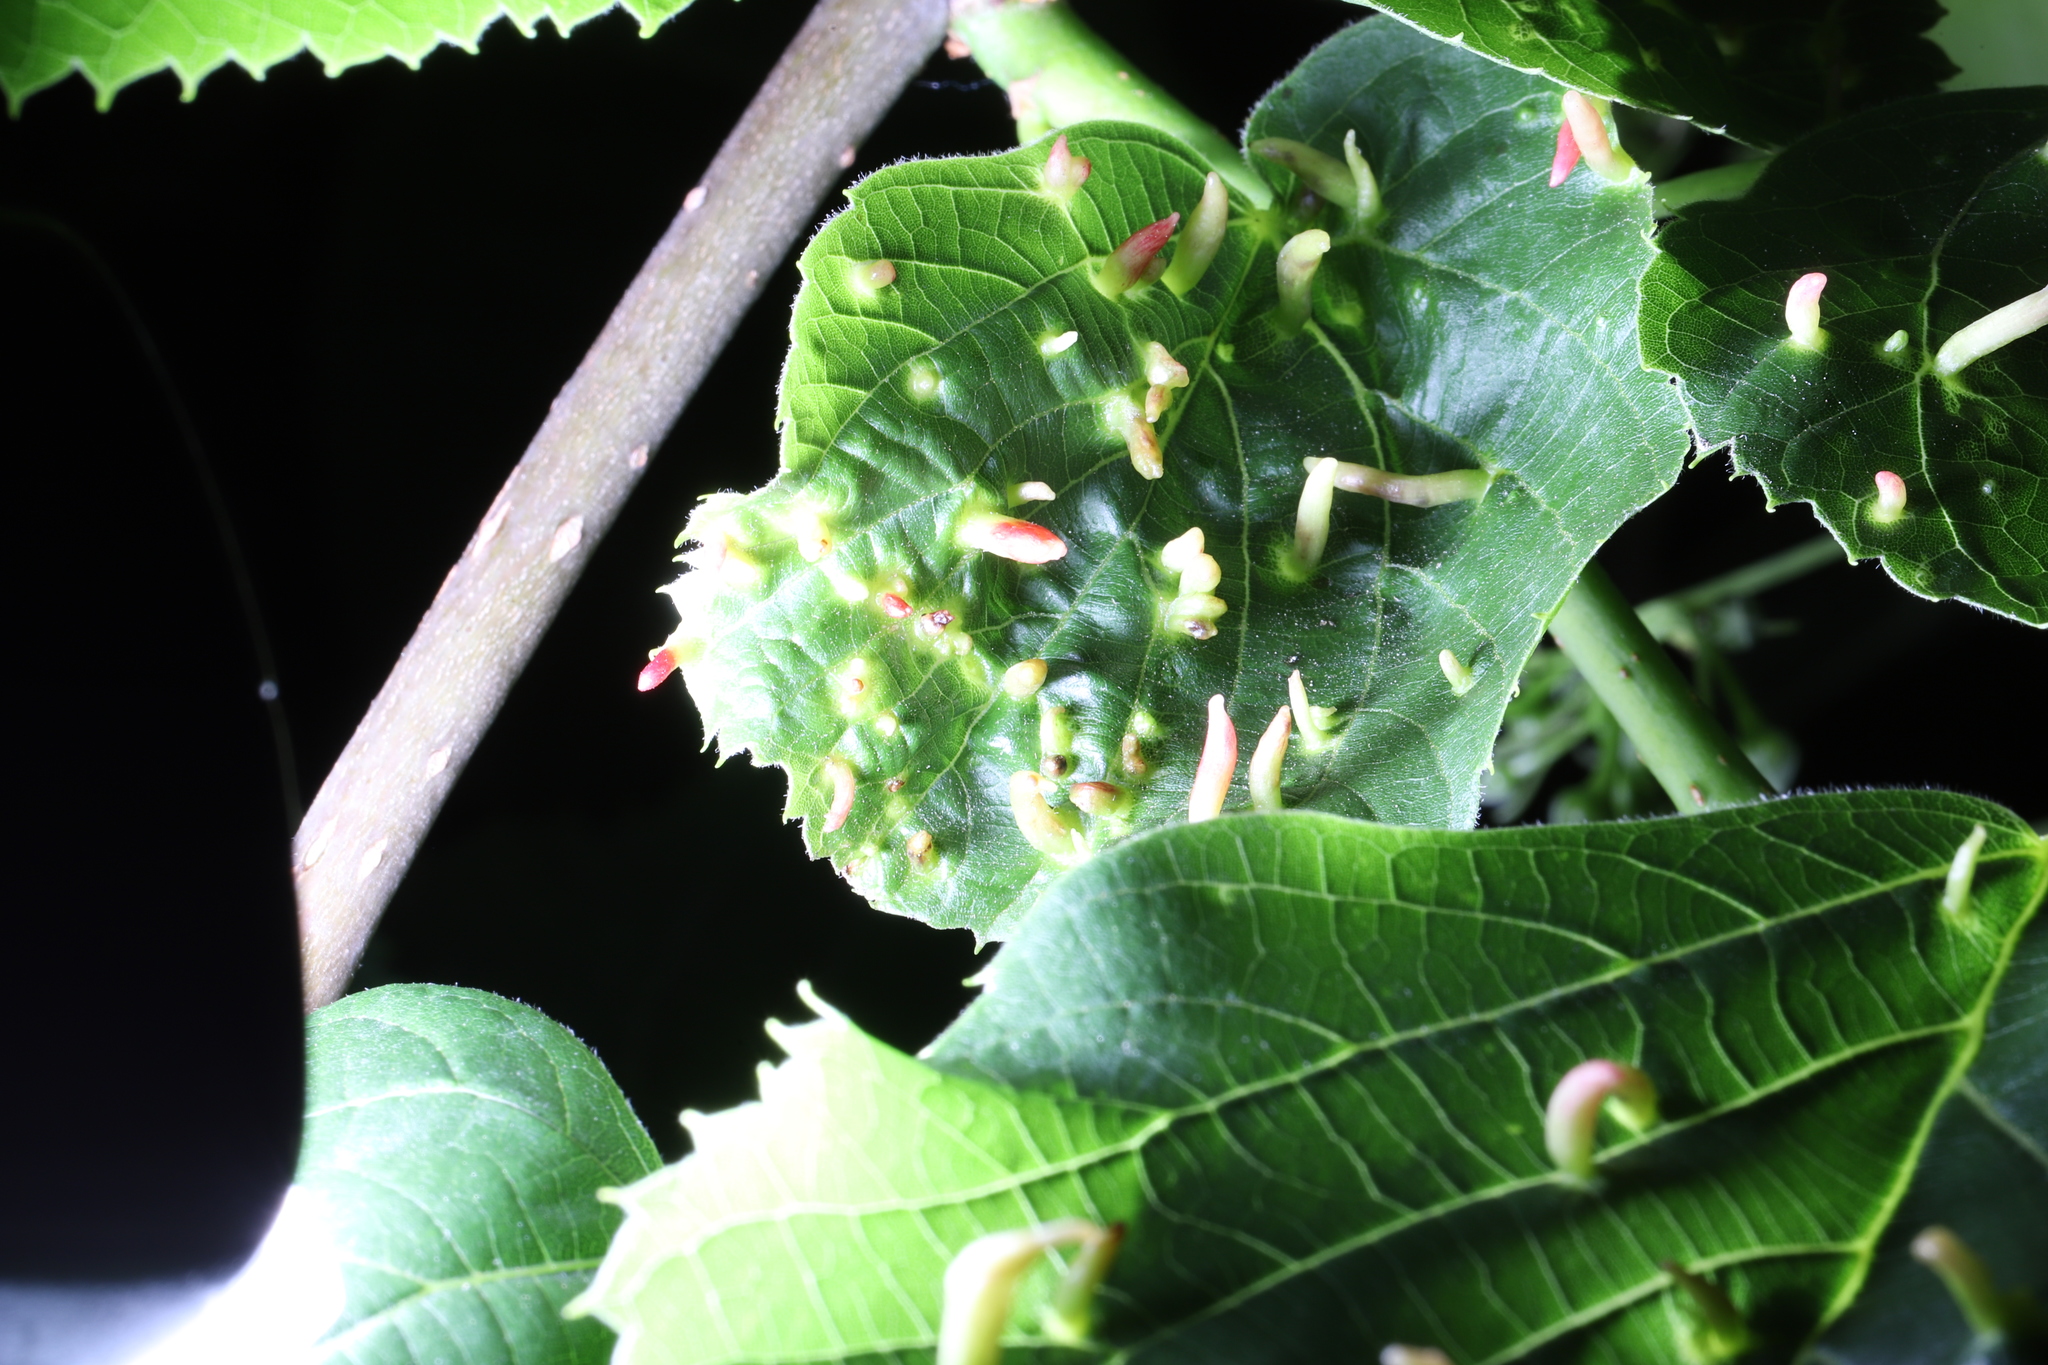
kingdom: Animalia
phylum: Arthropoda
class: Arachnida
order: Trombidiformes
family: Eriophyidae
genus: Eriophyes
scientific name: Eriophyes tiliae
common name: Red nail gall mite
